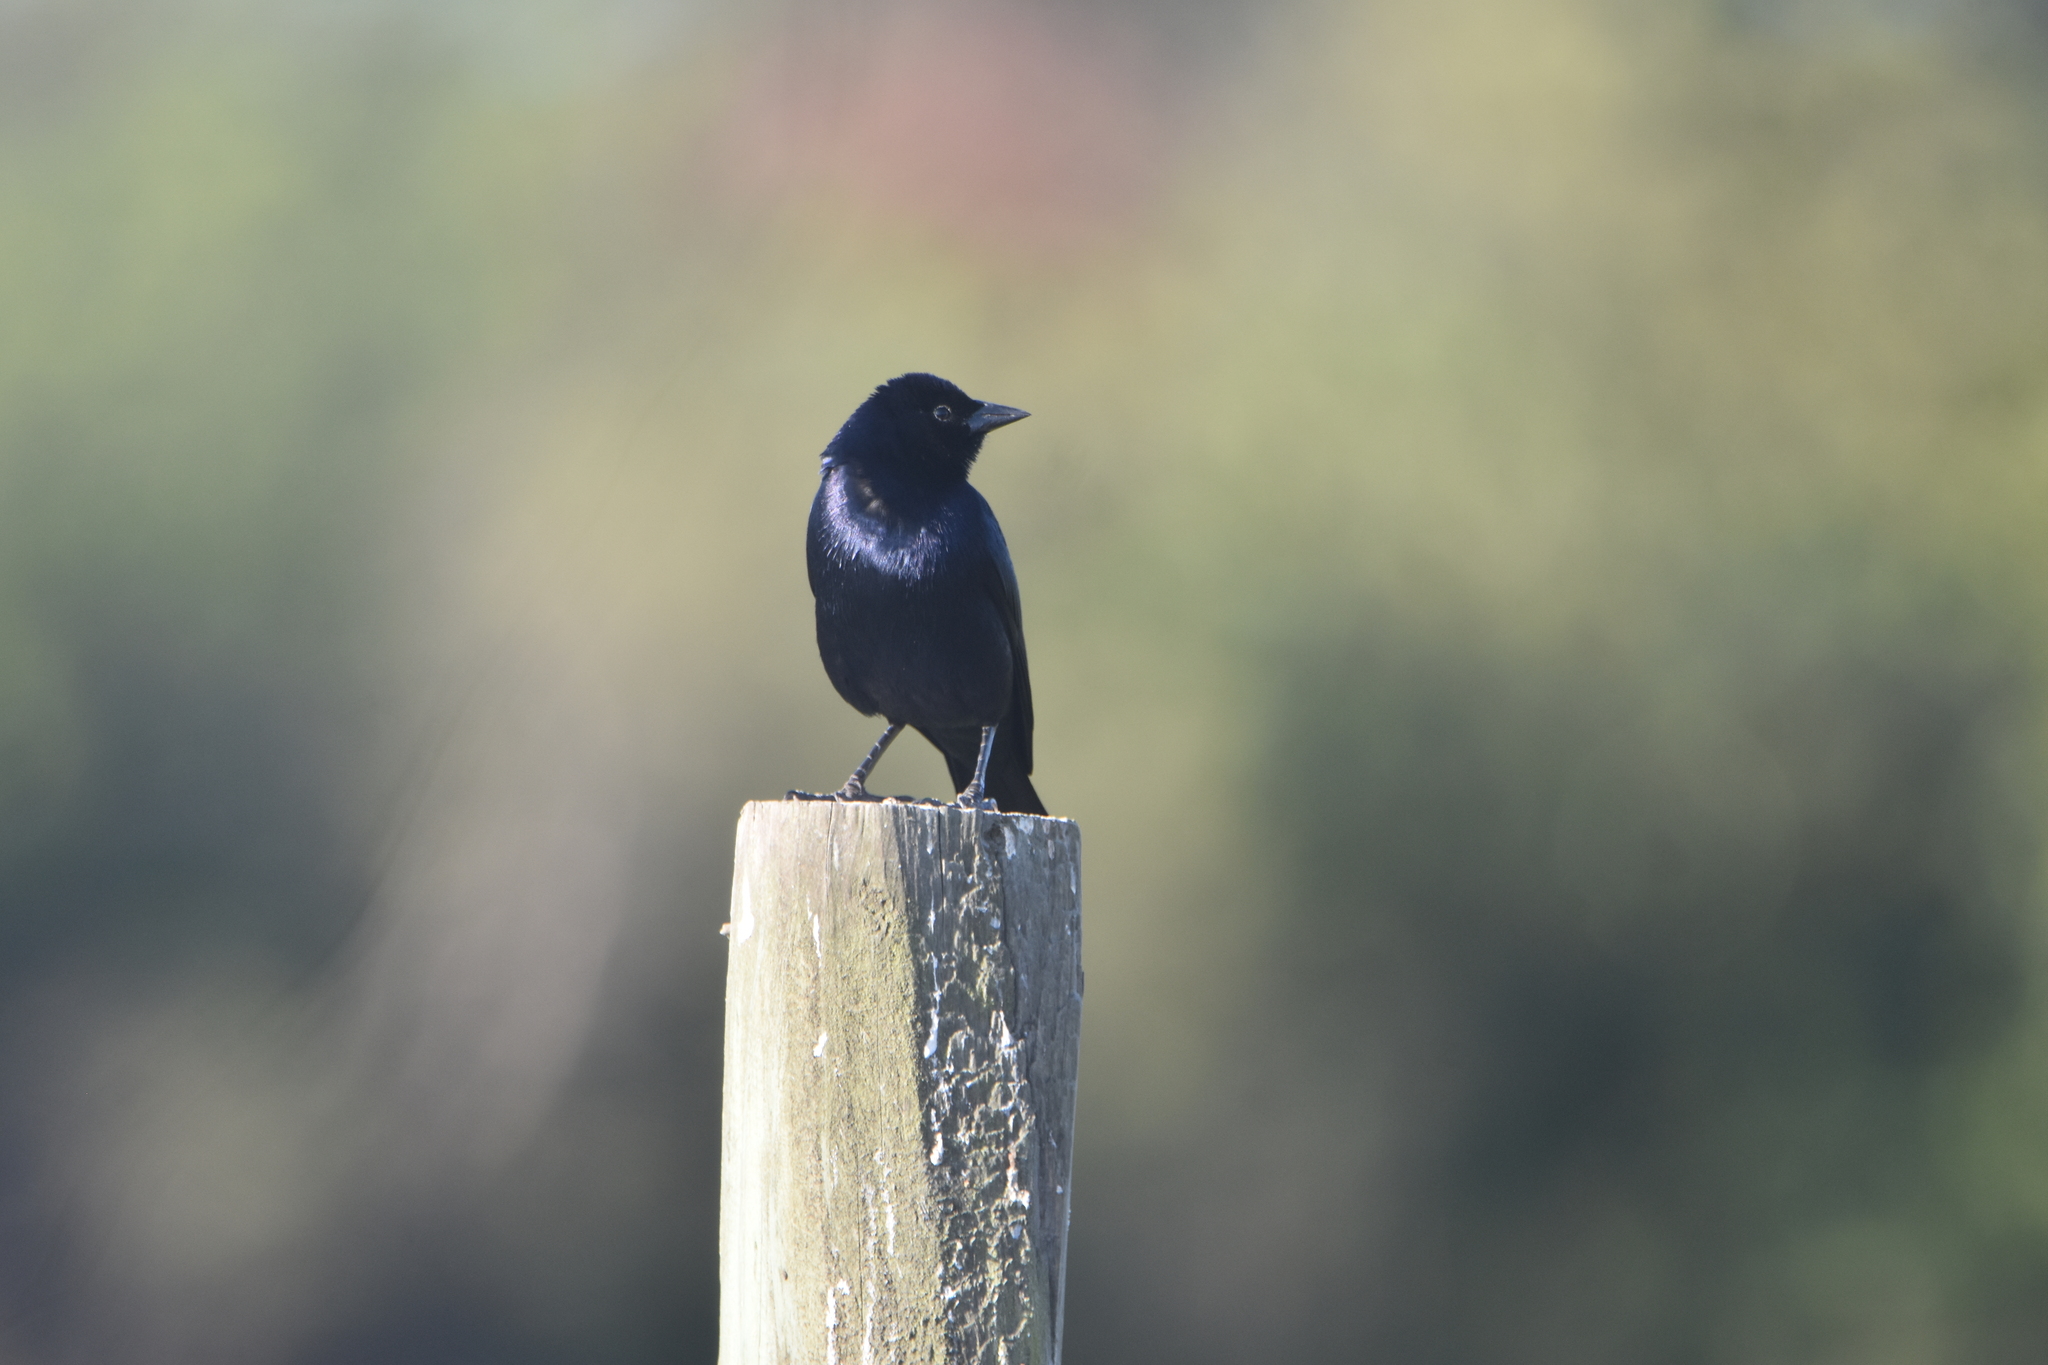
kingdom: Animalia
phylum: Chordata
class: Aves
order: Passeriformes
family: Icteridae
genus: Molothrus
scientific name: Molothrus bonariensis
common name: Shiny cowbird
